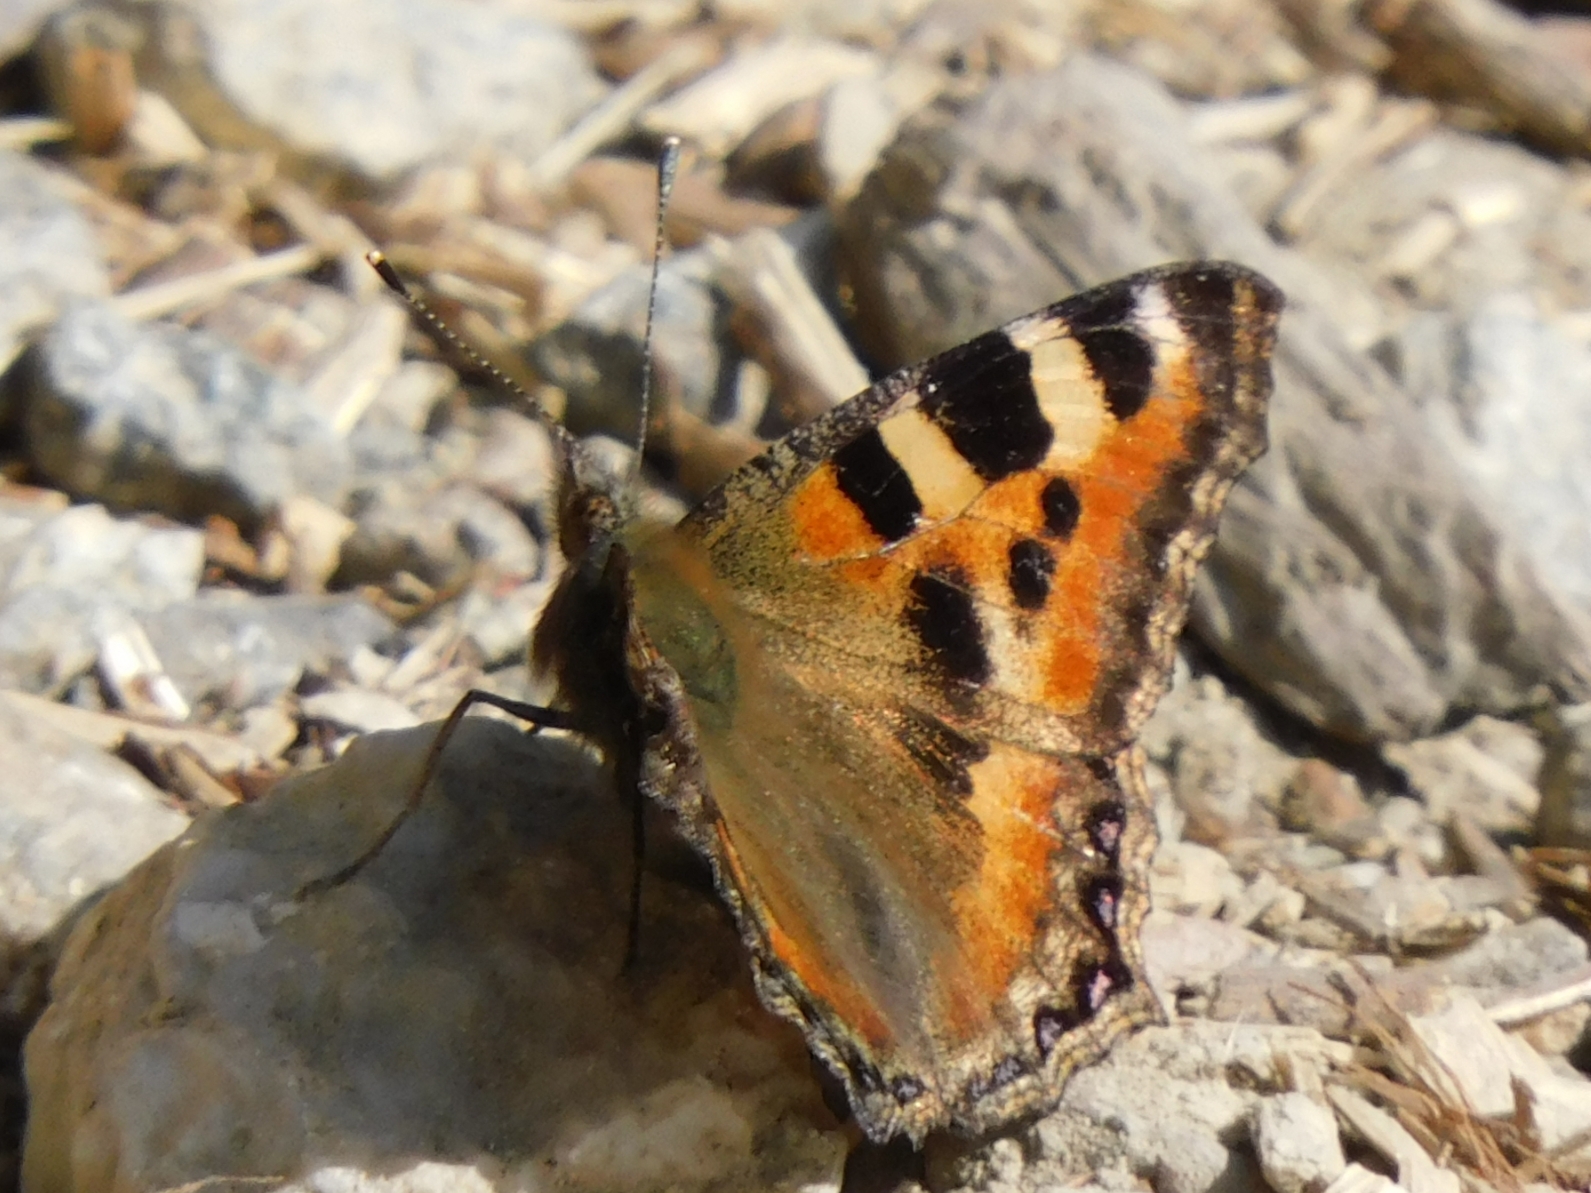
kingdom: Animalia
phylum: Arthropoda
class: Insecta
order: Lepidoptera
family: Nymphalidae
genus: Aglais
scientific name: Aglais caschmirensis
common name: Indian tortoiseshell
